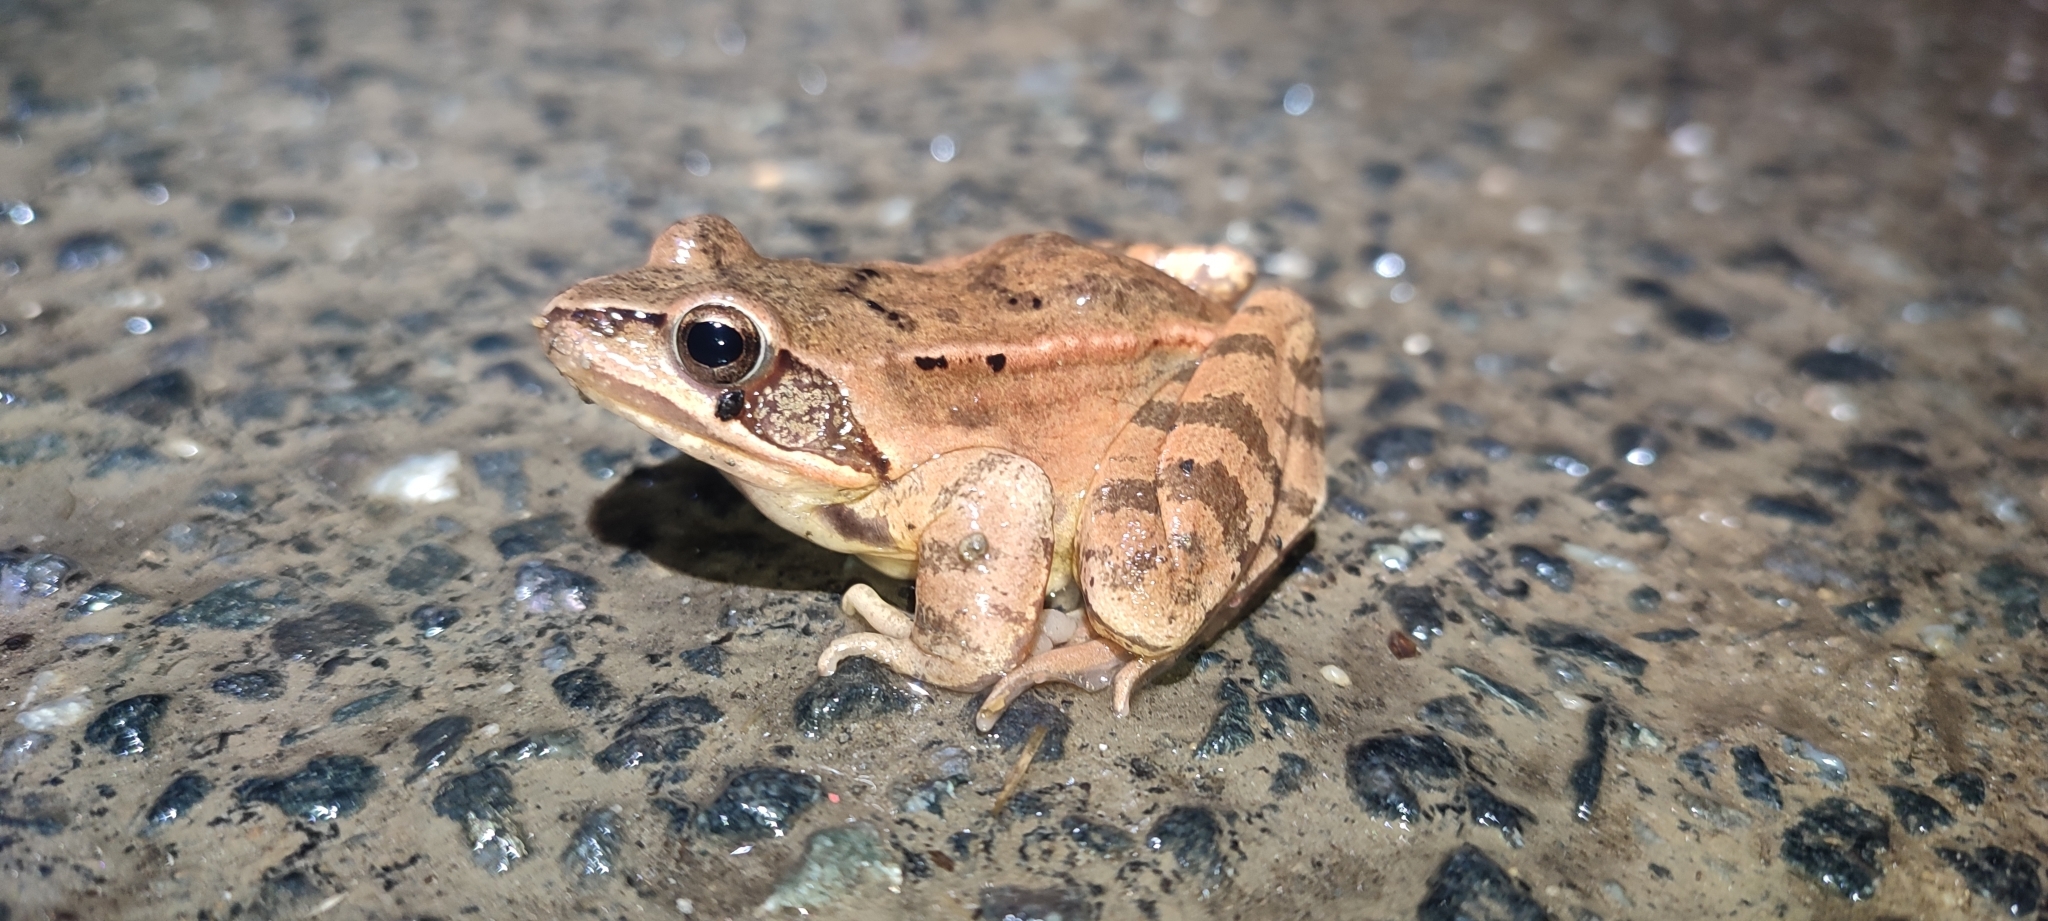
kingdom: Animalia
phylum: Chordata
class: Amphibia
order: Anura
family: Ranidae
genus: Rana
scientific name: Rana dalmatina
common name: Agile frog
